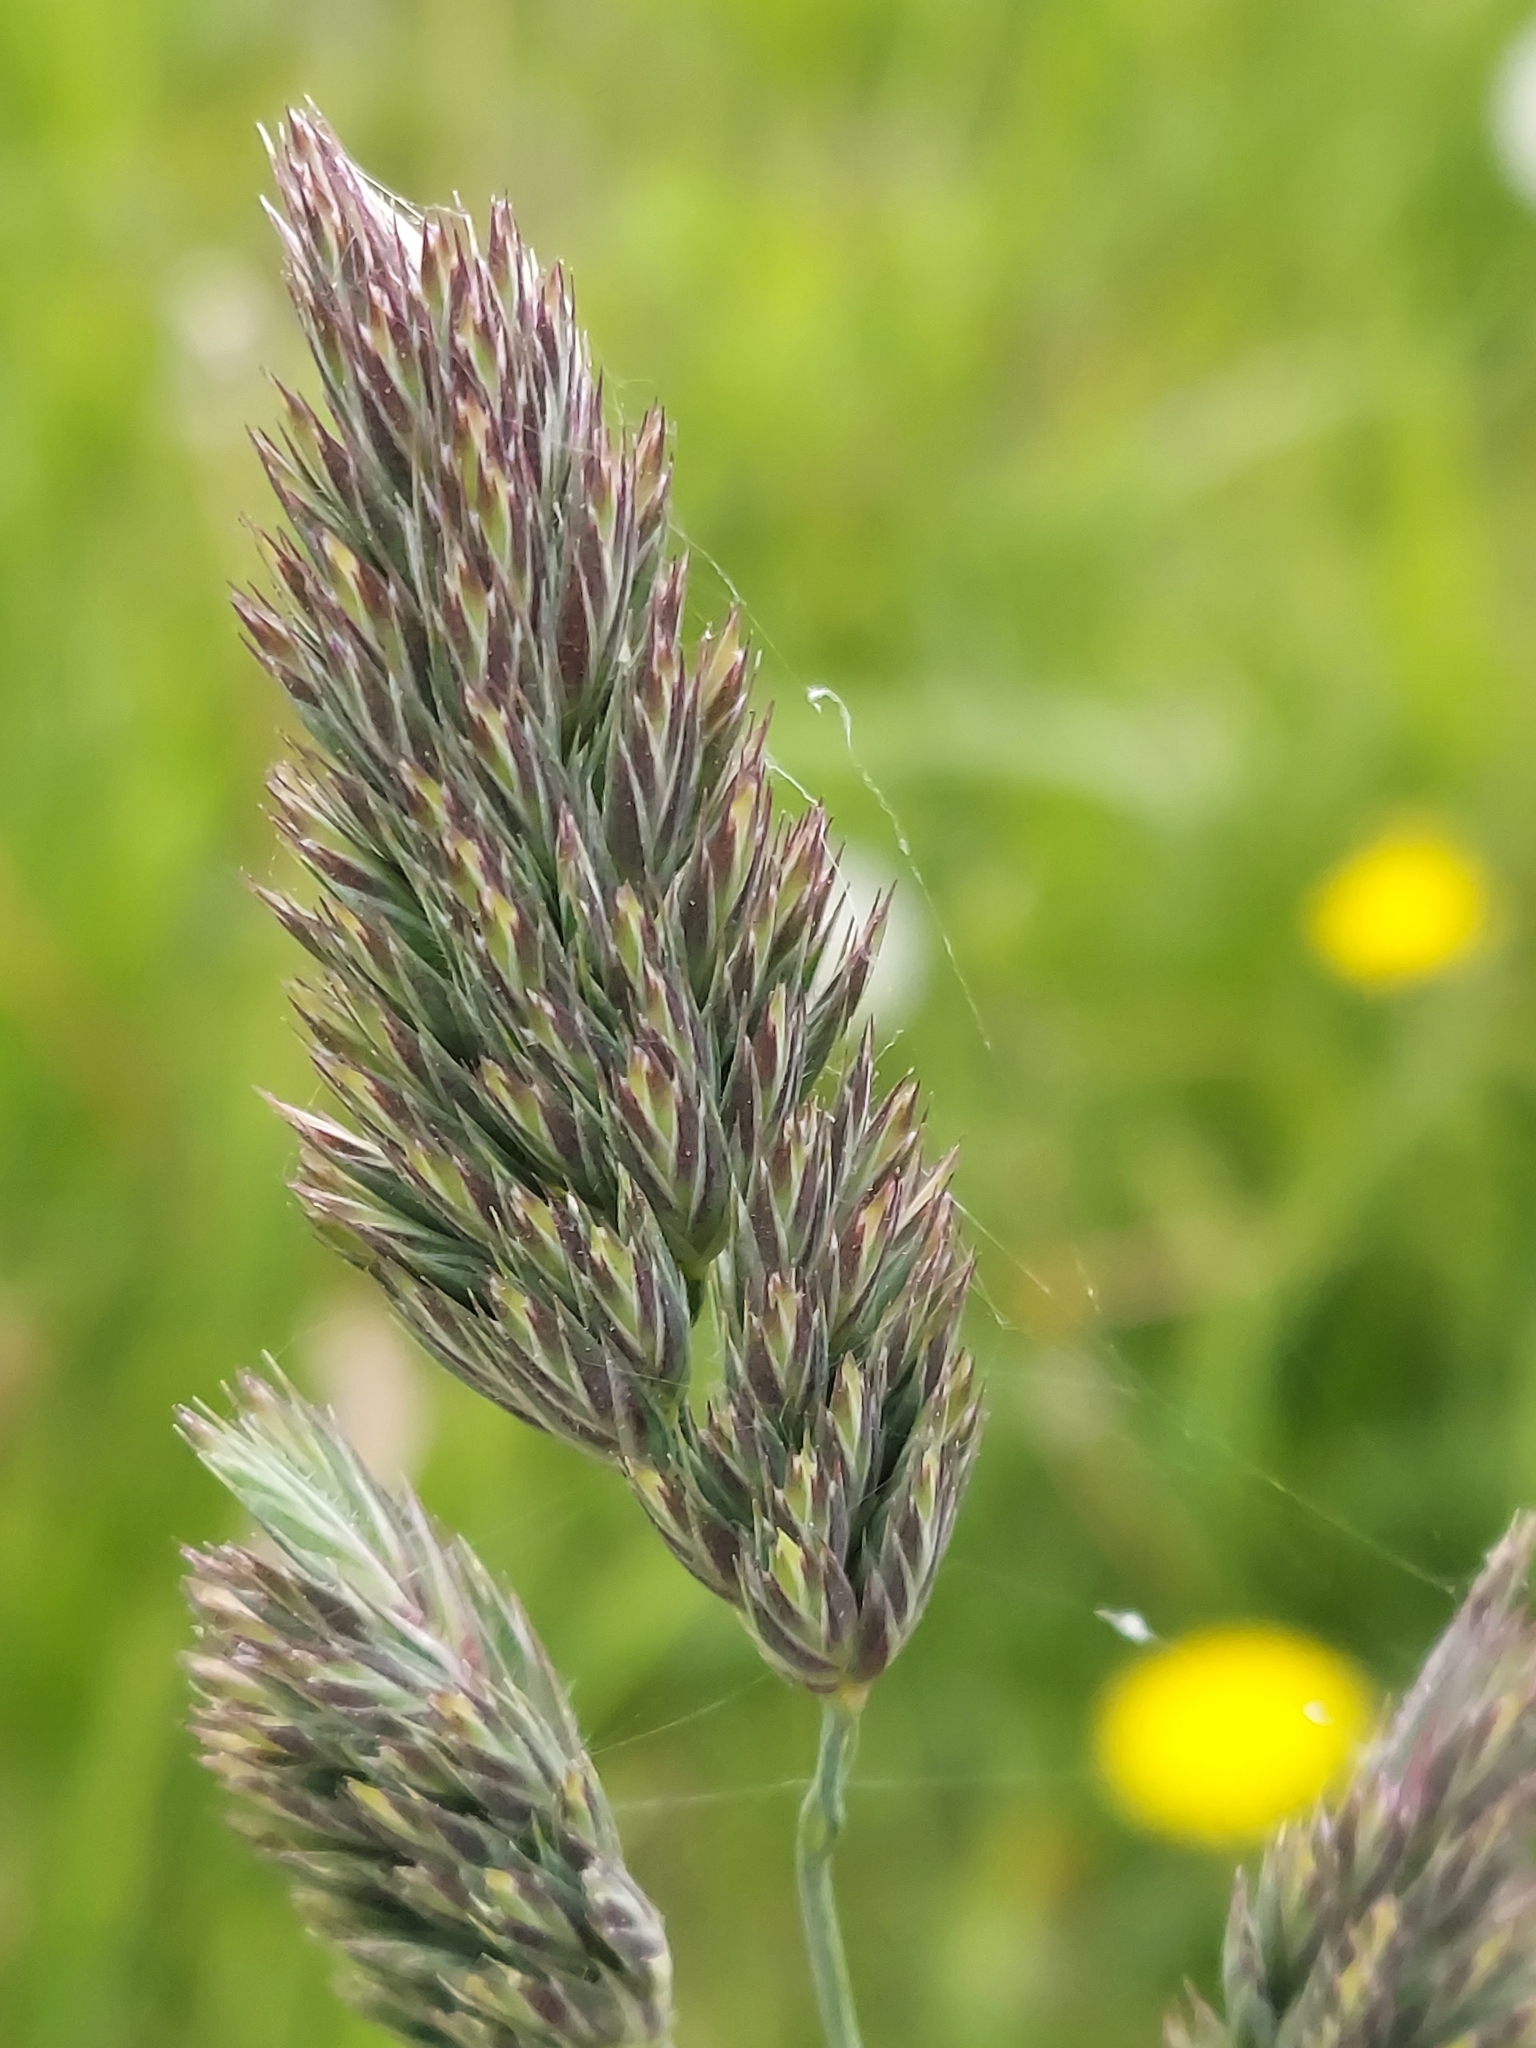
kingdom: Plantae
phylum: Tracheophyta
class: Liliopsida
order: Poales
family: Poaceae
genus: Dactylis
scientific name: Dactylis glomerata
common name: Orchardgrass
